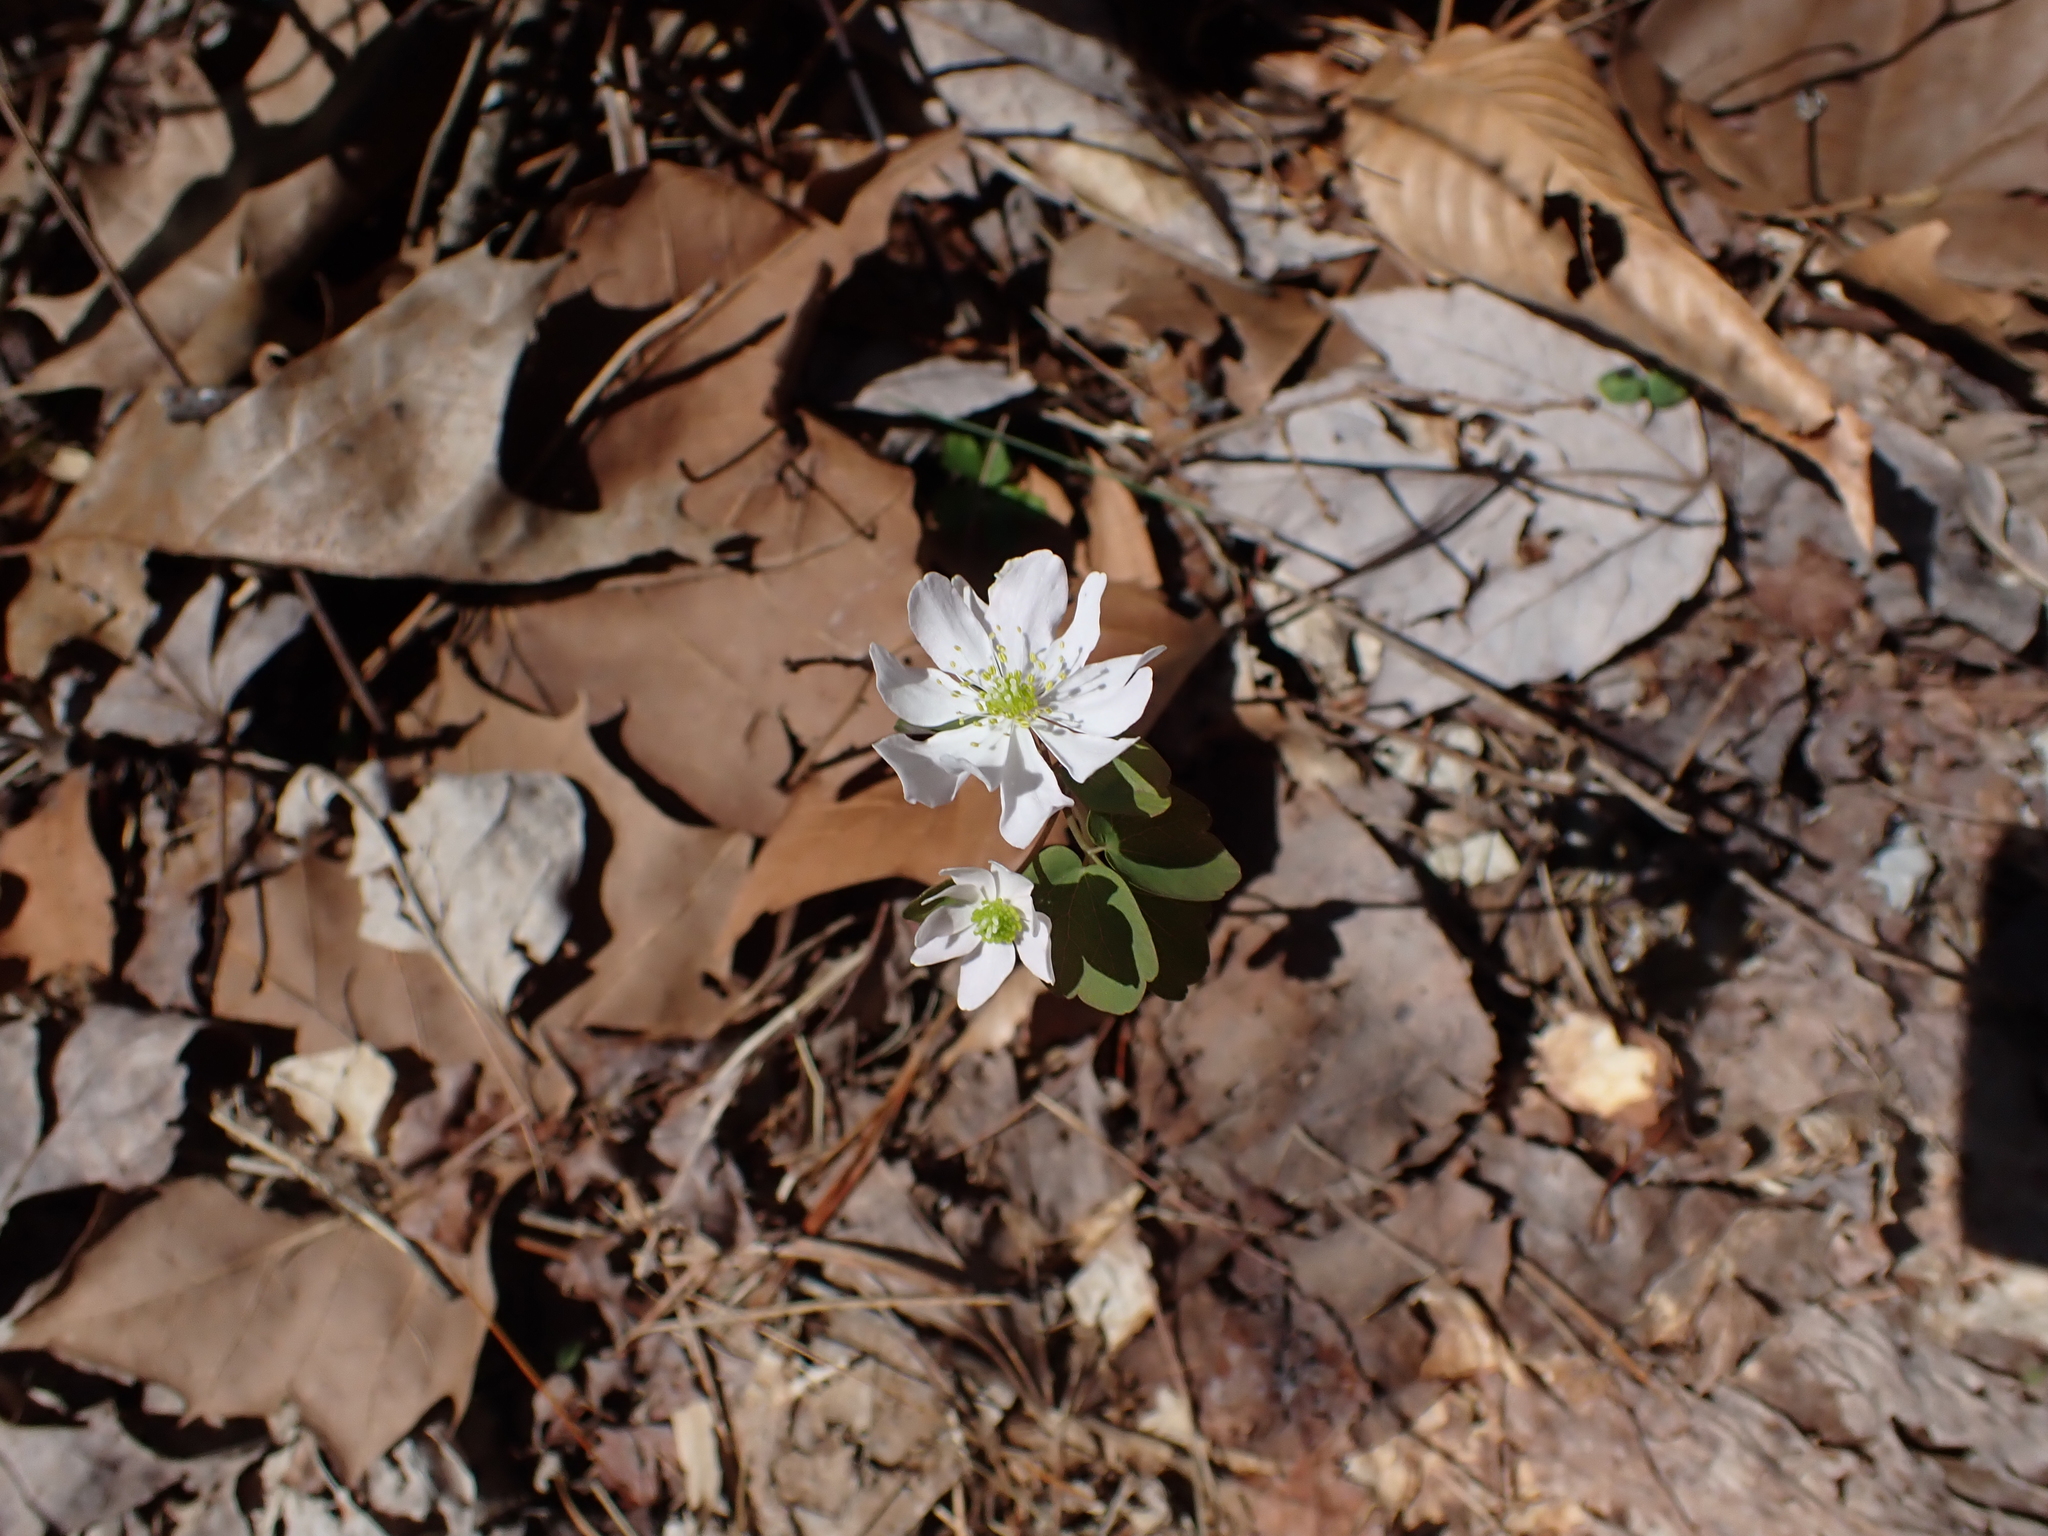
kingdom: Plantae
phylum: Tracheophyta
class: Magnoliopsida
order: Ranunculales
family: Ranunculaceae
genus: Thalictrum
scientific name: Thalictrum thalictroides
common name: Rue-anemone
